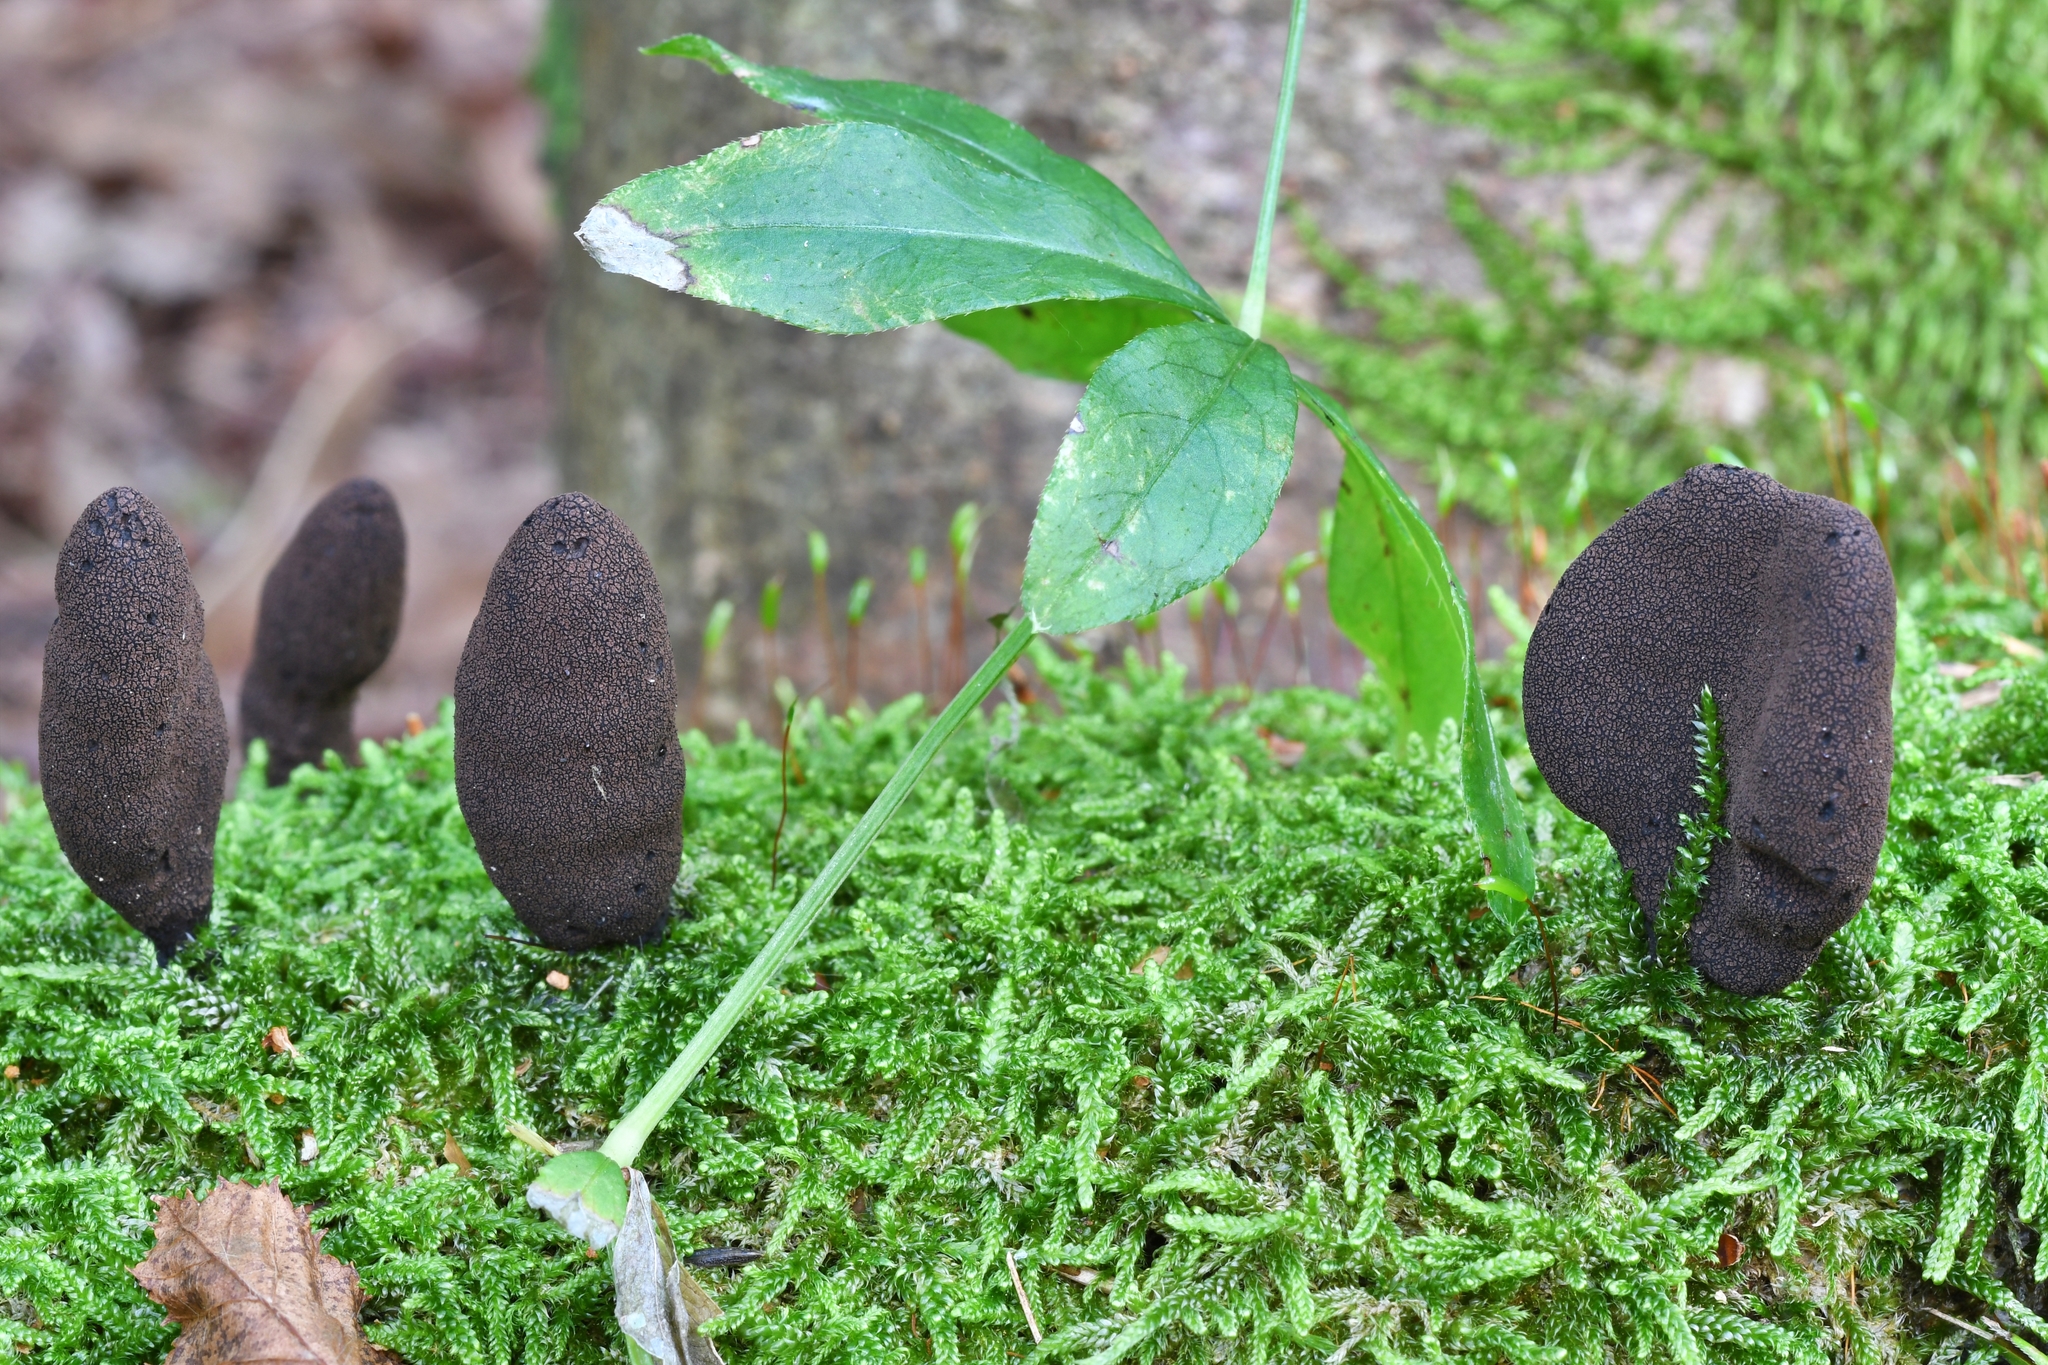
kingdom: Fungi
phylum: Ascomycota
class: Sordariomycetes
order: Xylariales
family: Xylariaceae
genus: Xylaria
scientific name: Xylaria polymorpha
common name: Dead man's fingers
